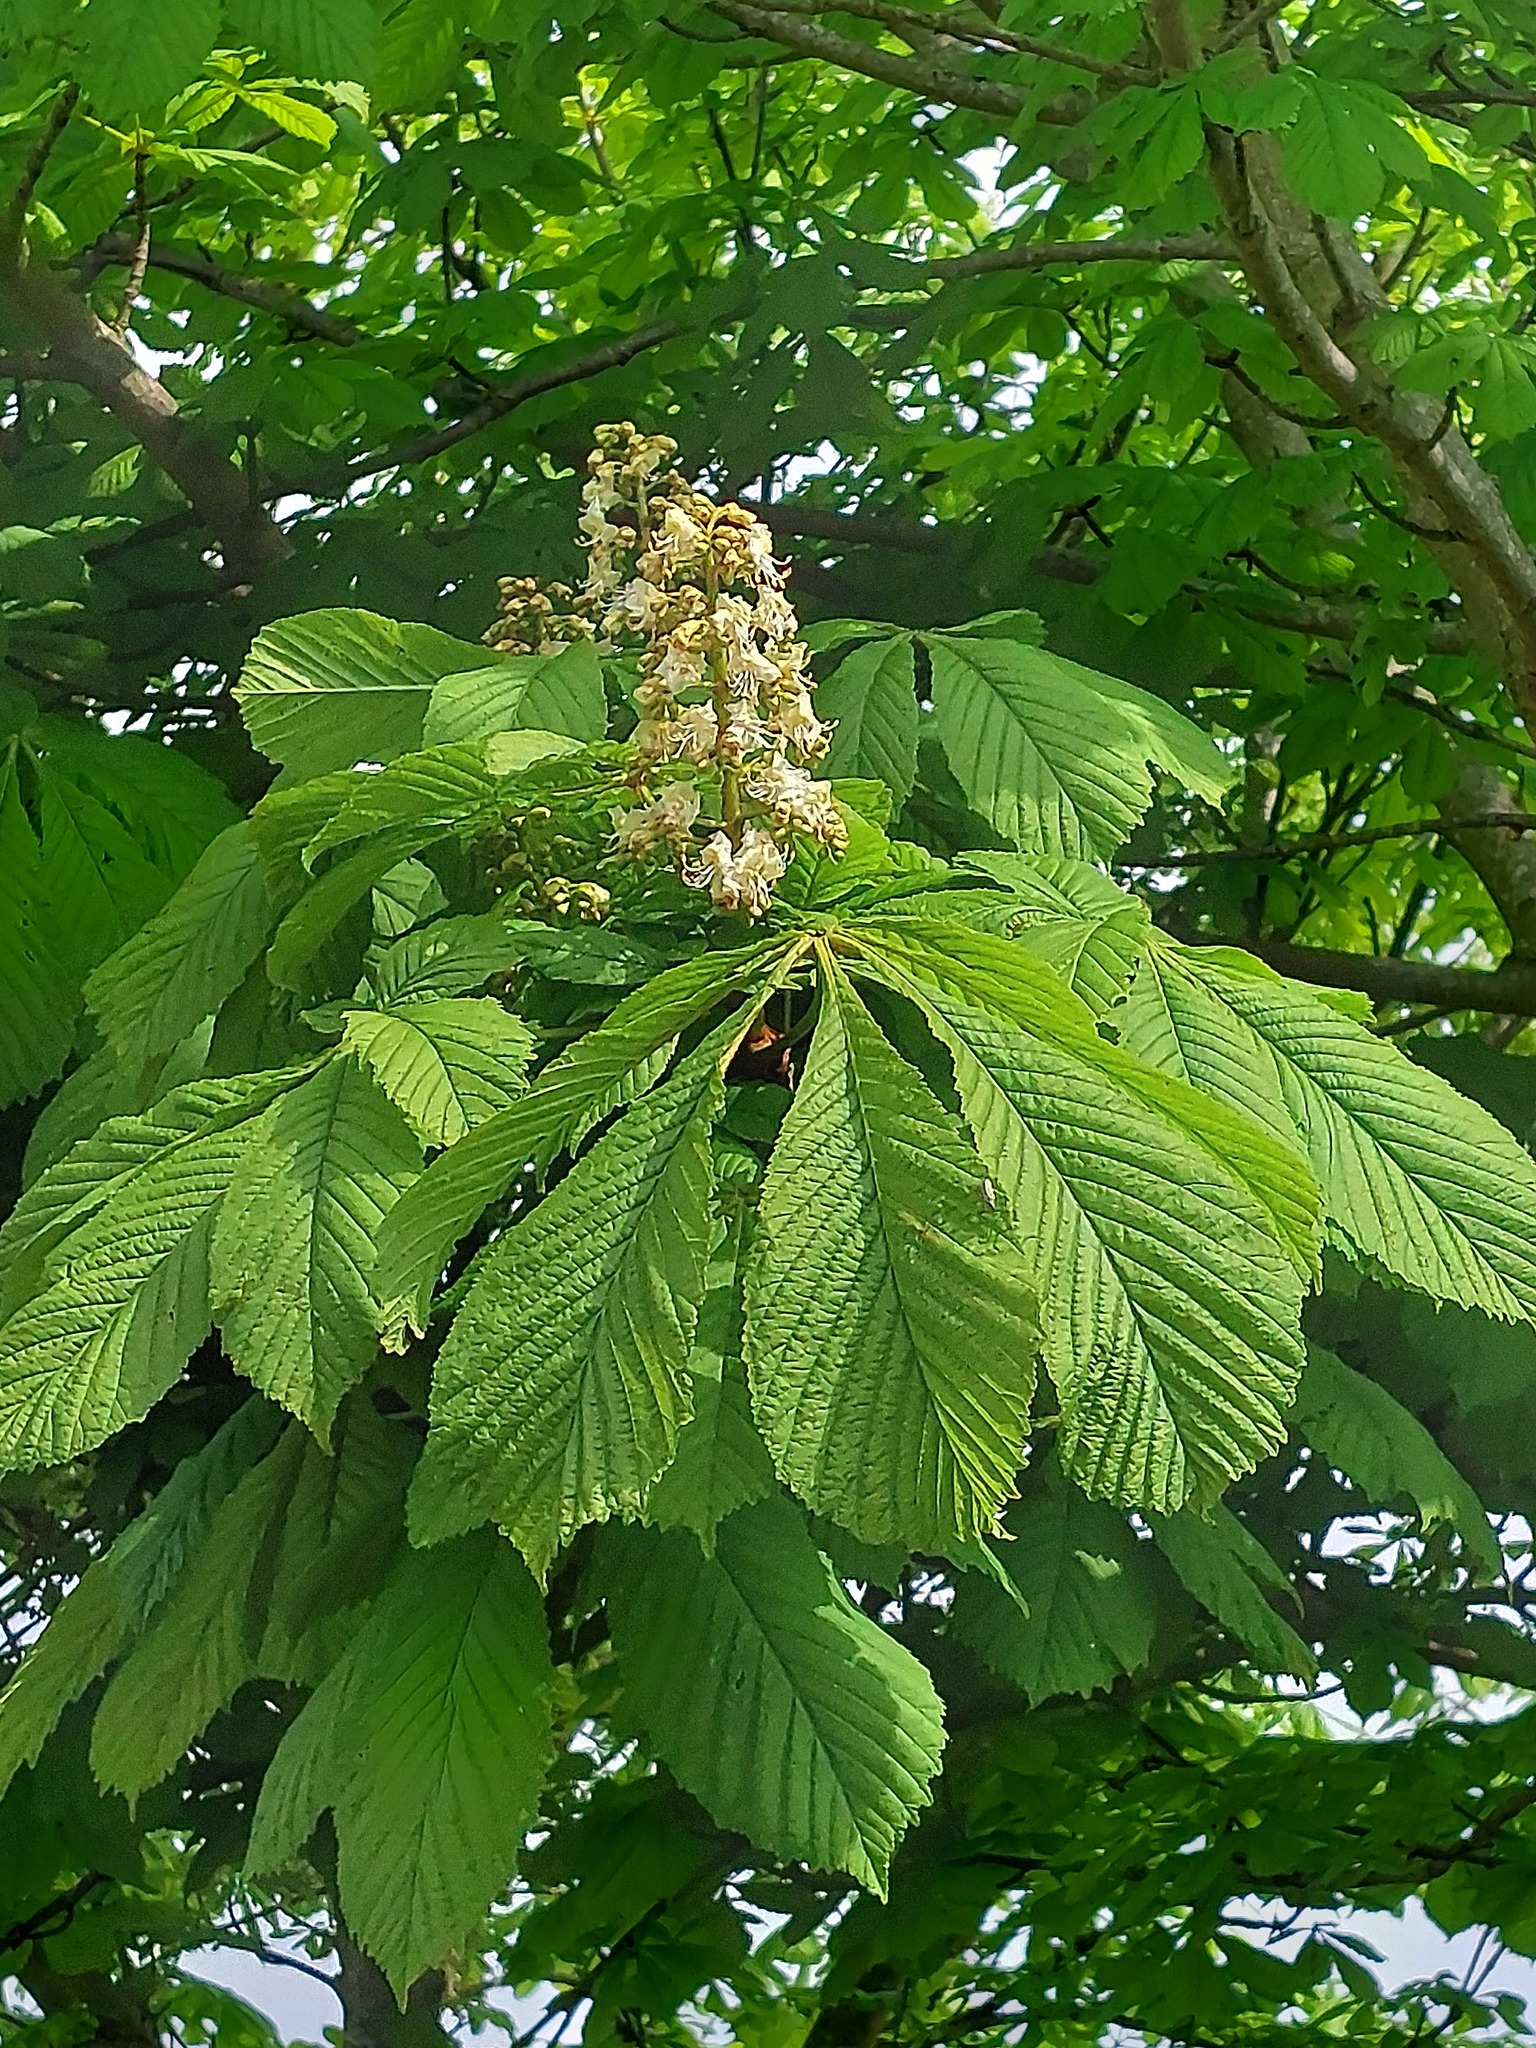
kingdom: Plantae
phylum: Tracheophyta
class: Magnoliopsida
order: Sapindales
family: Sapindaceae
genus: Aesculus
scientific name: Aesculus hippocastanum
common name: Horse-chestnut
